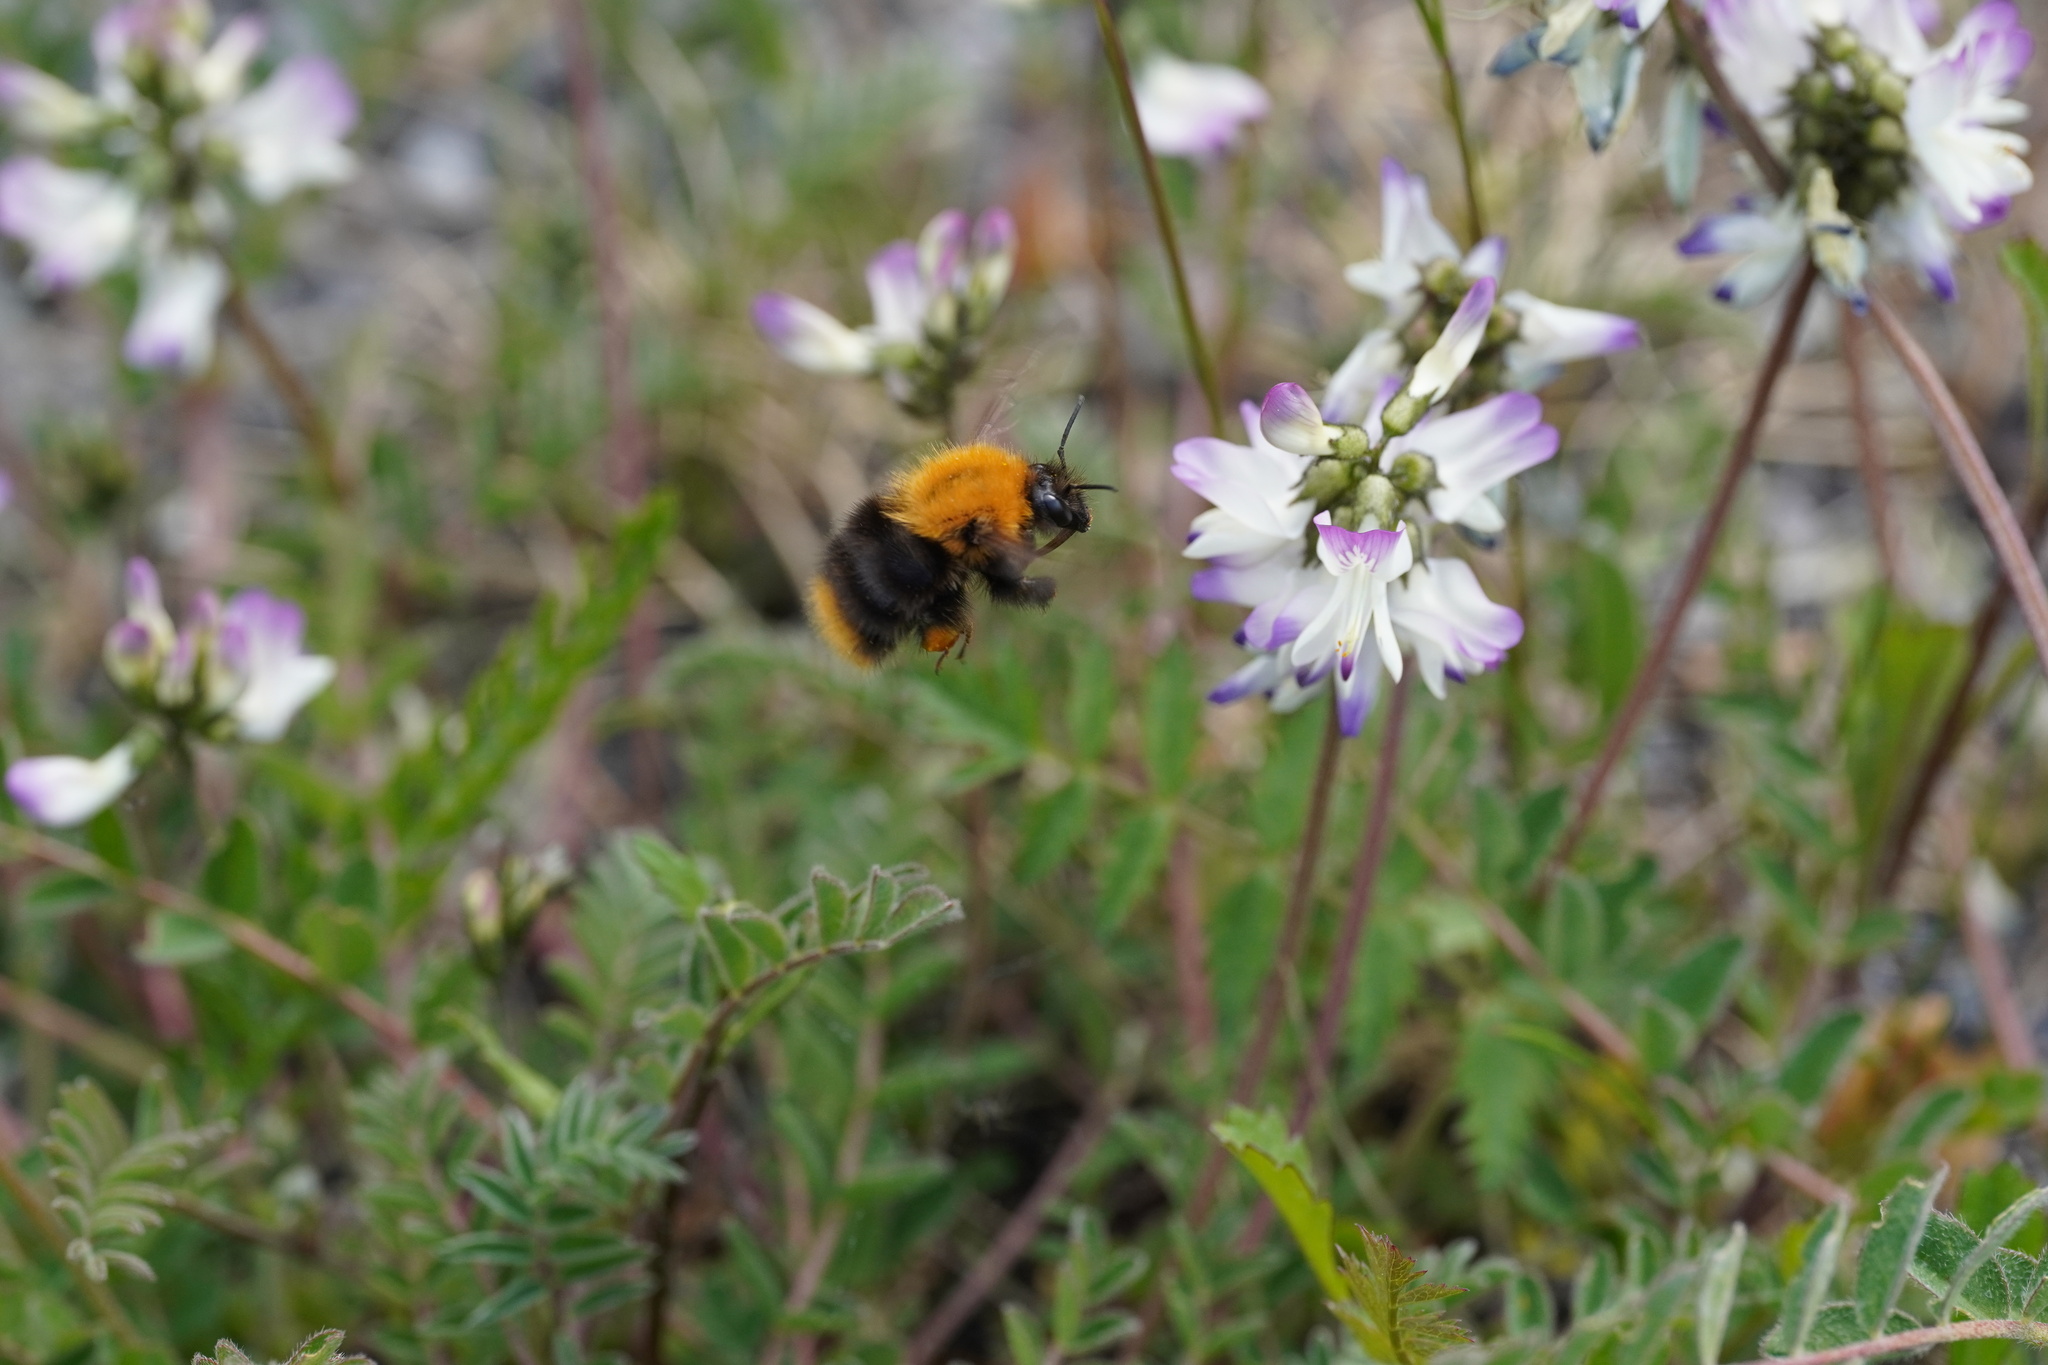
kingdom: Animalia
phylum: Arthropoda
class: Insecta
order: Hymenoptera
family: Apidae
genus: Bombus
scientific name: Bombus pascuorum
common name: Common carder bee
